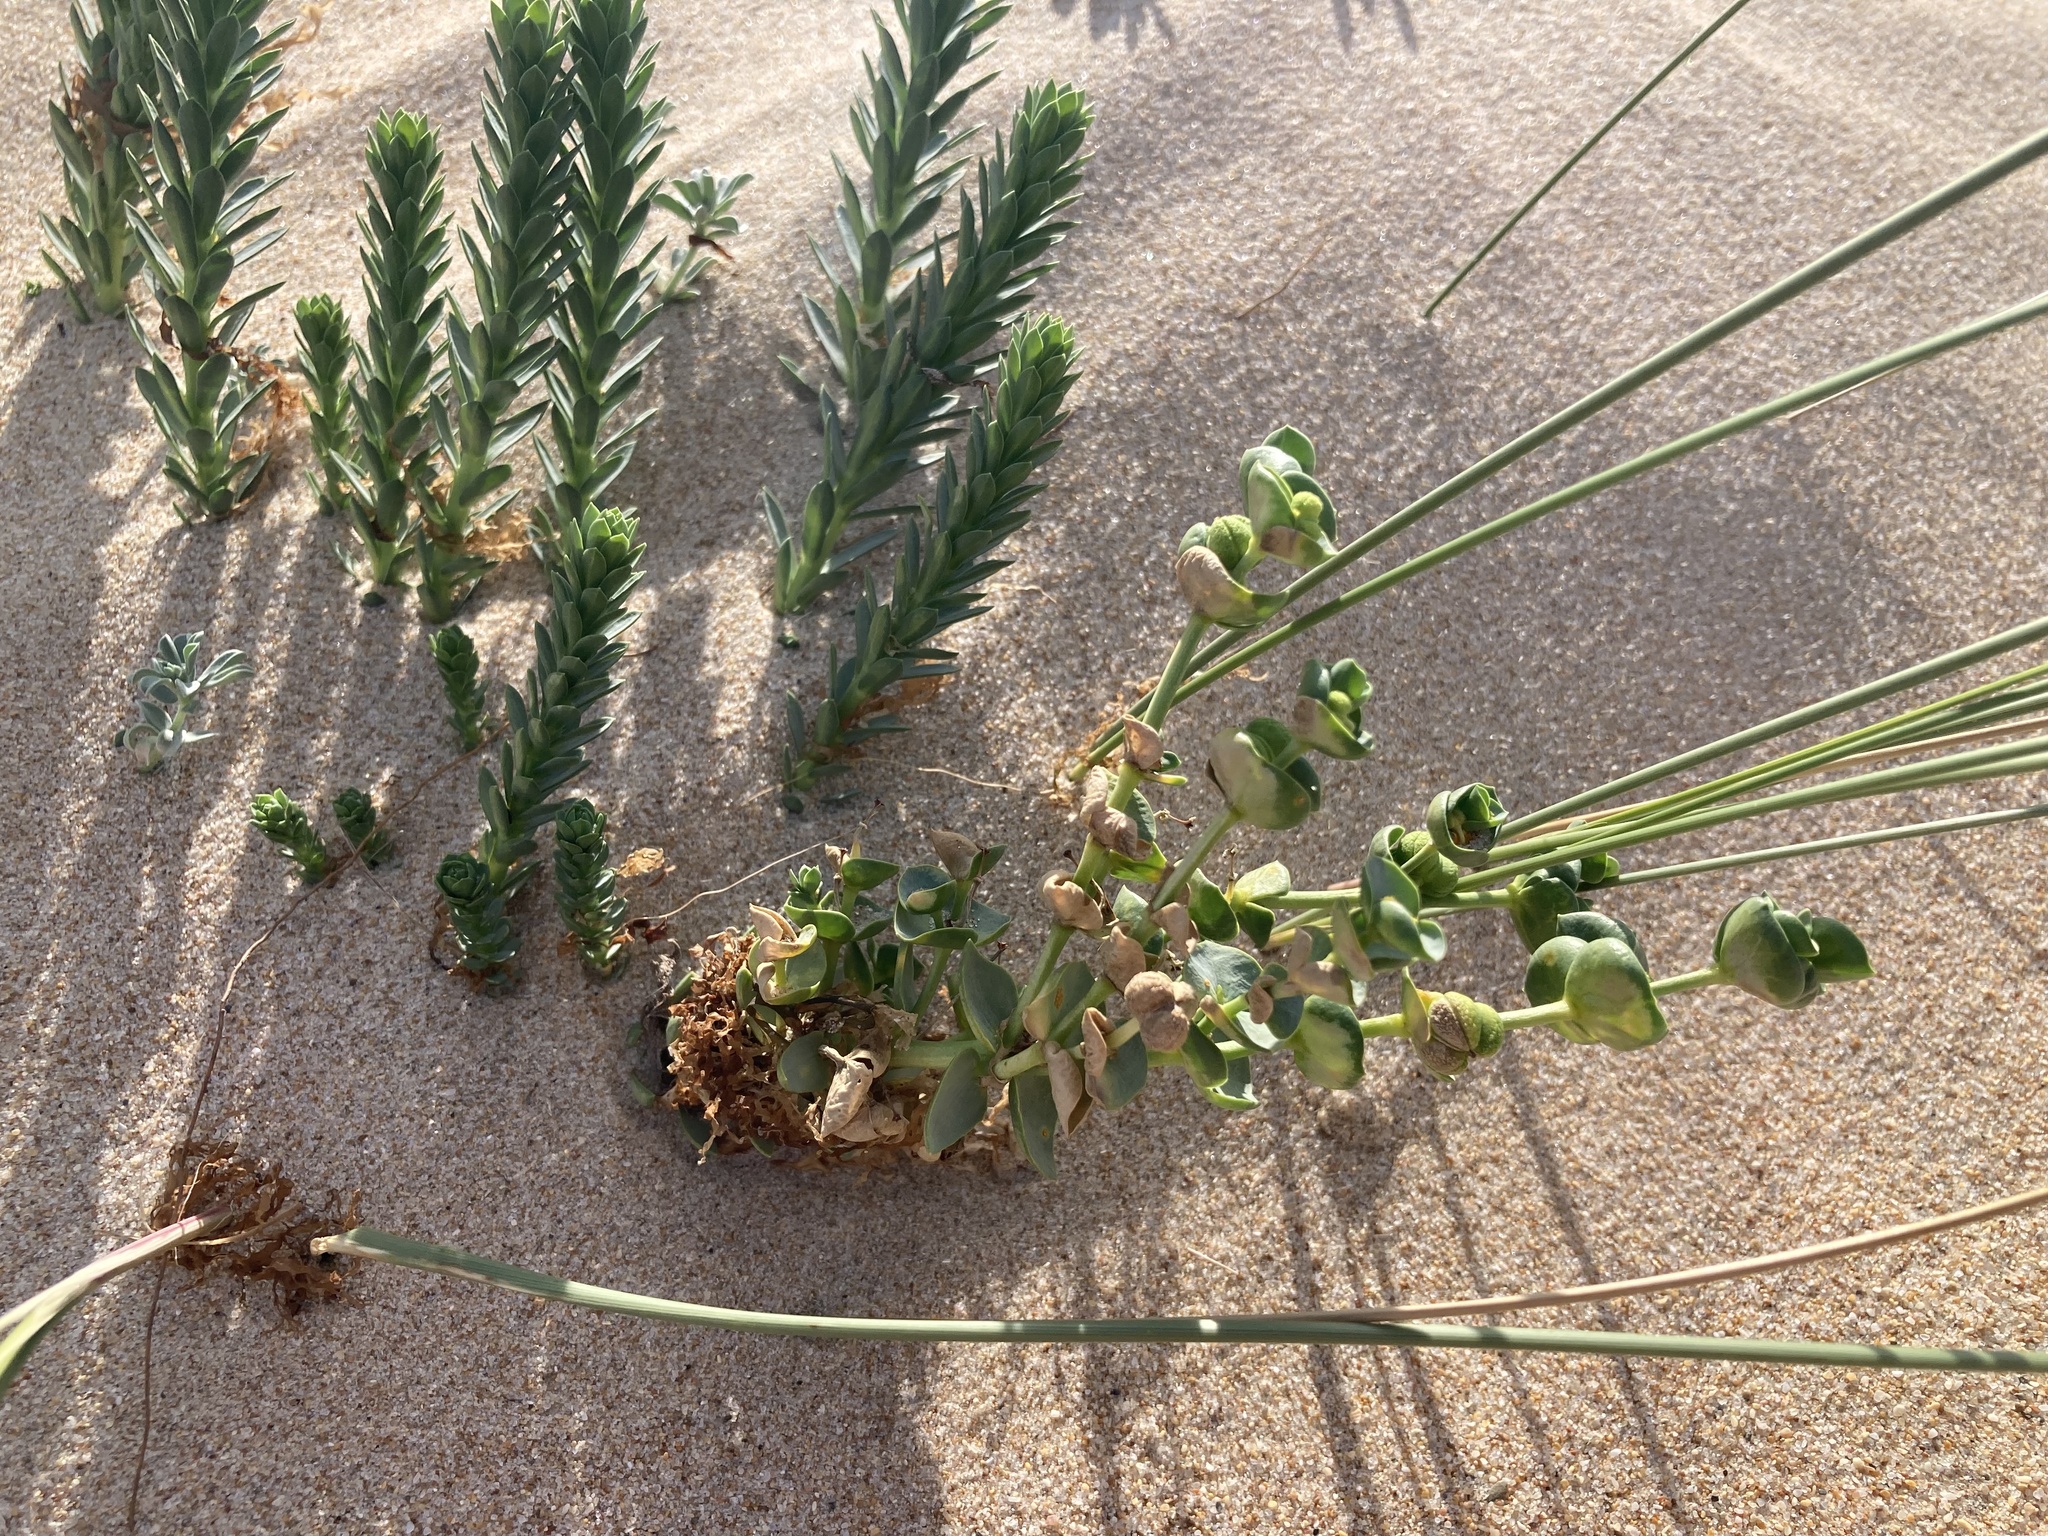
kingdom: Plantae
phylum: Tracheophyta
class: Magnoliopsida
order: Malpighiales
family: Euphorbiaceae
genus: Euphorbia
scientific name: Euphorbia paralias
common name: Sea spurge
